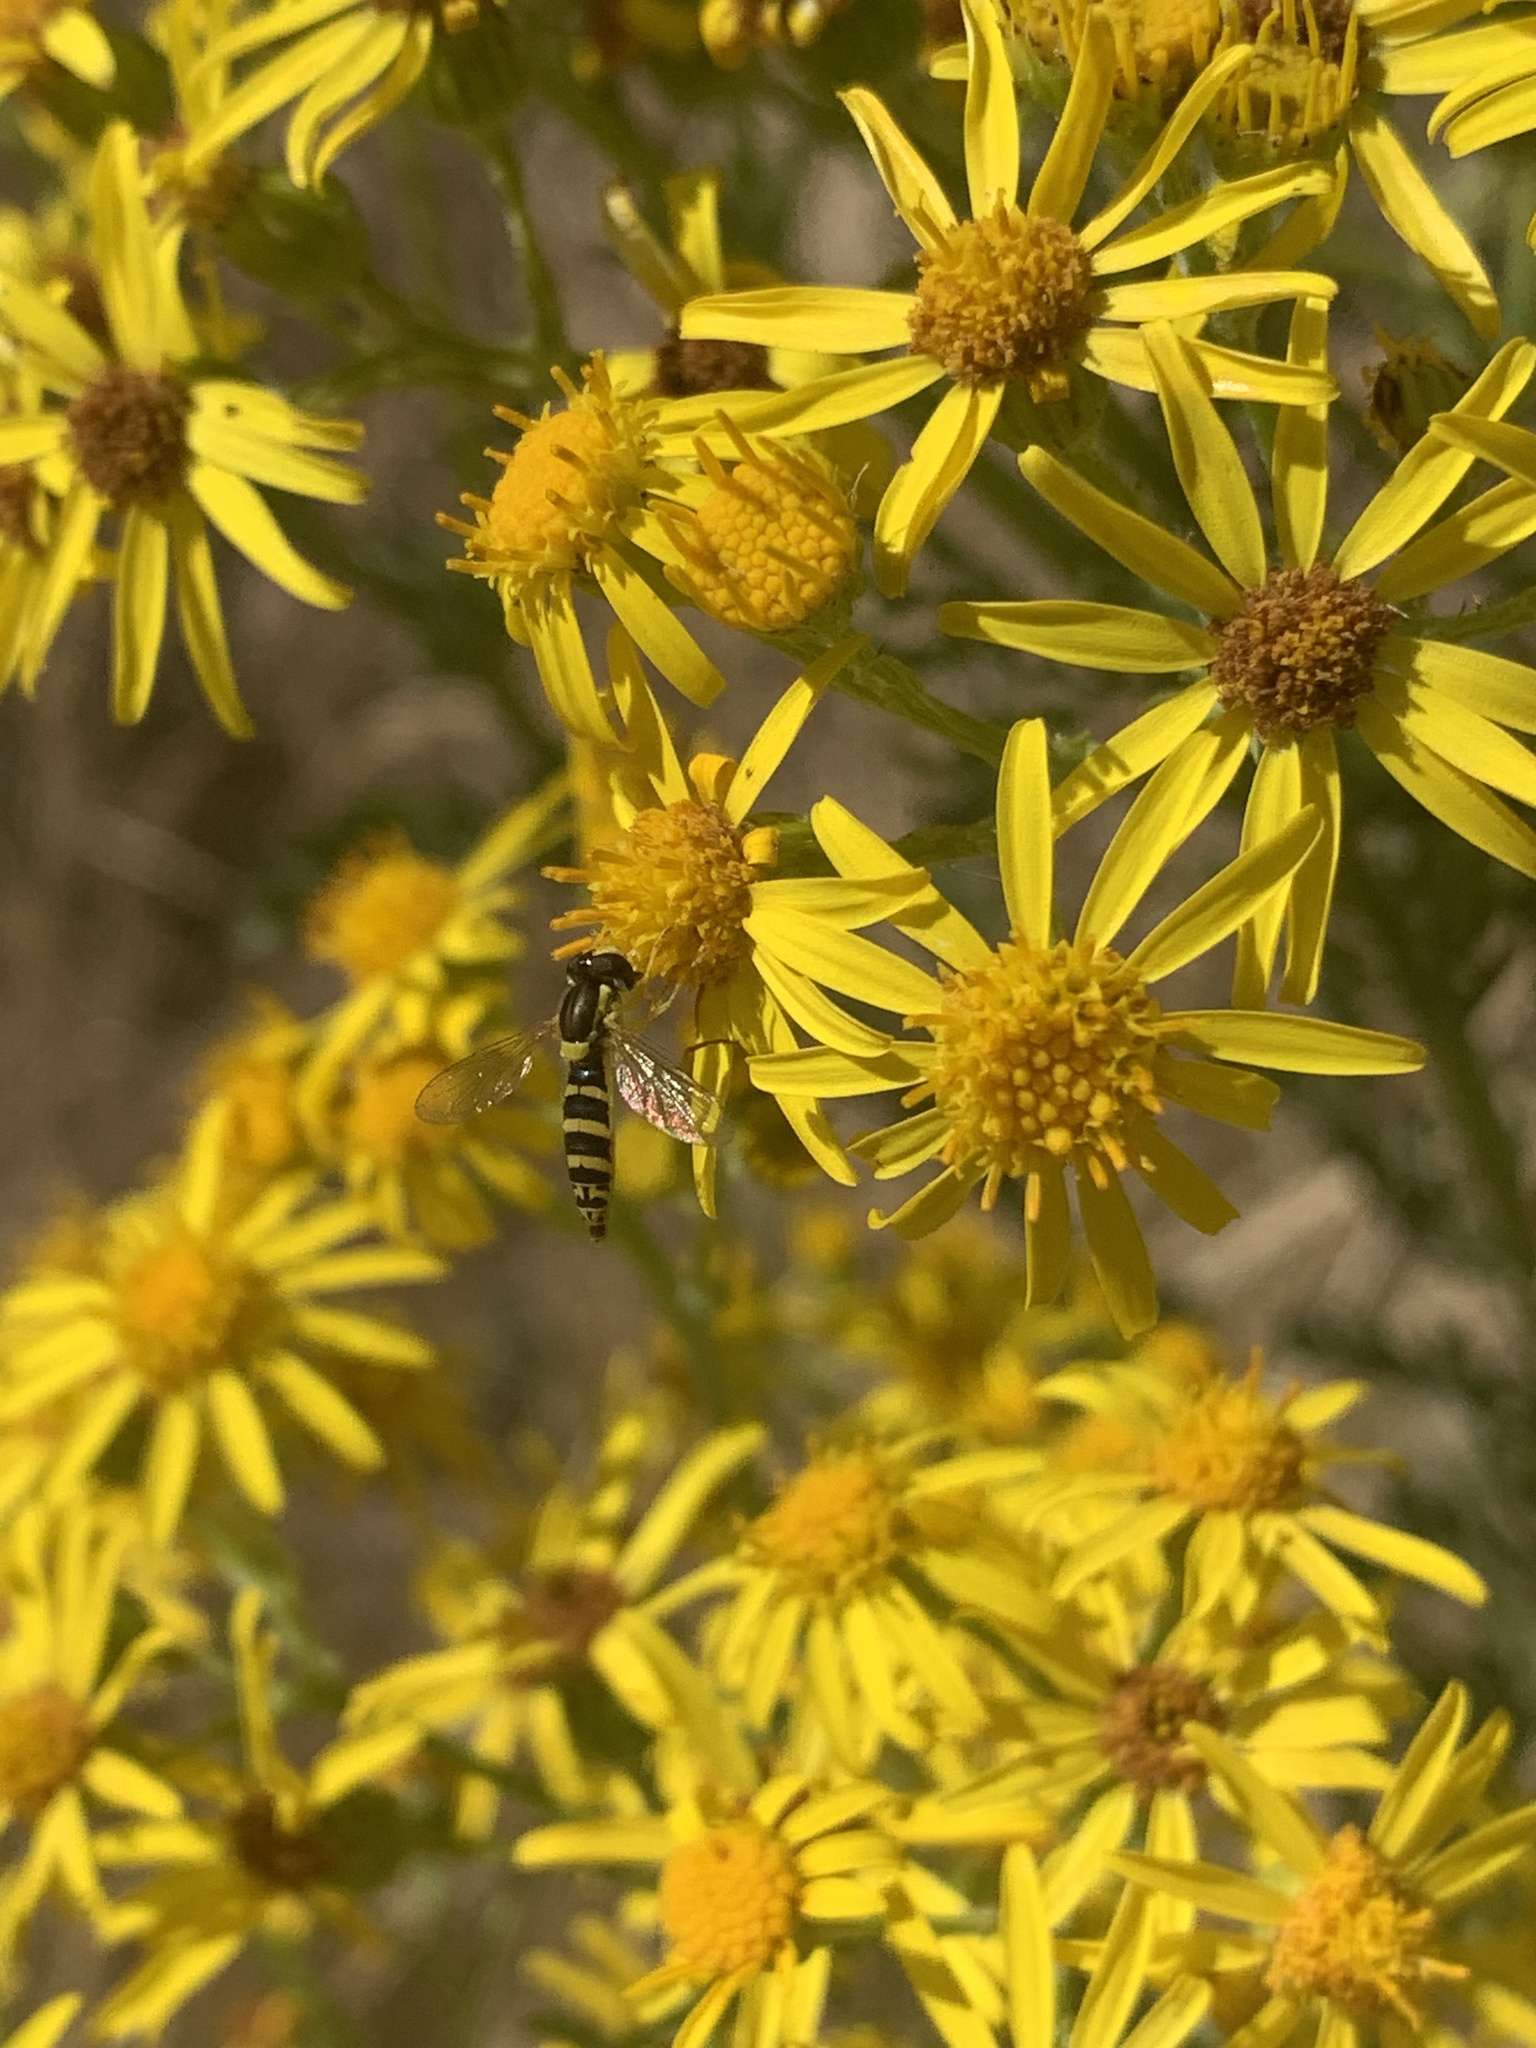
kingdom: Animalia
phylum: Arthropoda
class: Insecta
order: Diptera
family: Syrphidae
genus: Sphaerophoria
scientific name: Sphaerophoria
